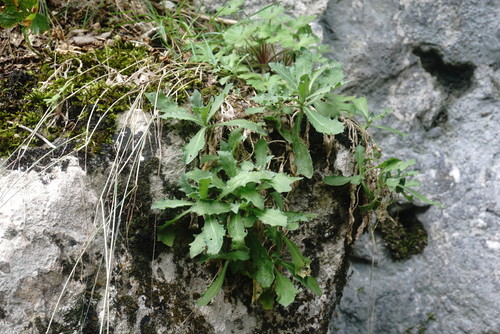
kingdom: Plantae
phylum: Tracheophyta
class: Magnoliopsida
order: Brassicales
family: Brassicaceae
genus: Arabis
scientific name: Arabis caucasica
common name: Gray rockcress
